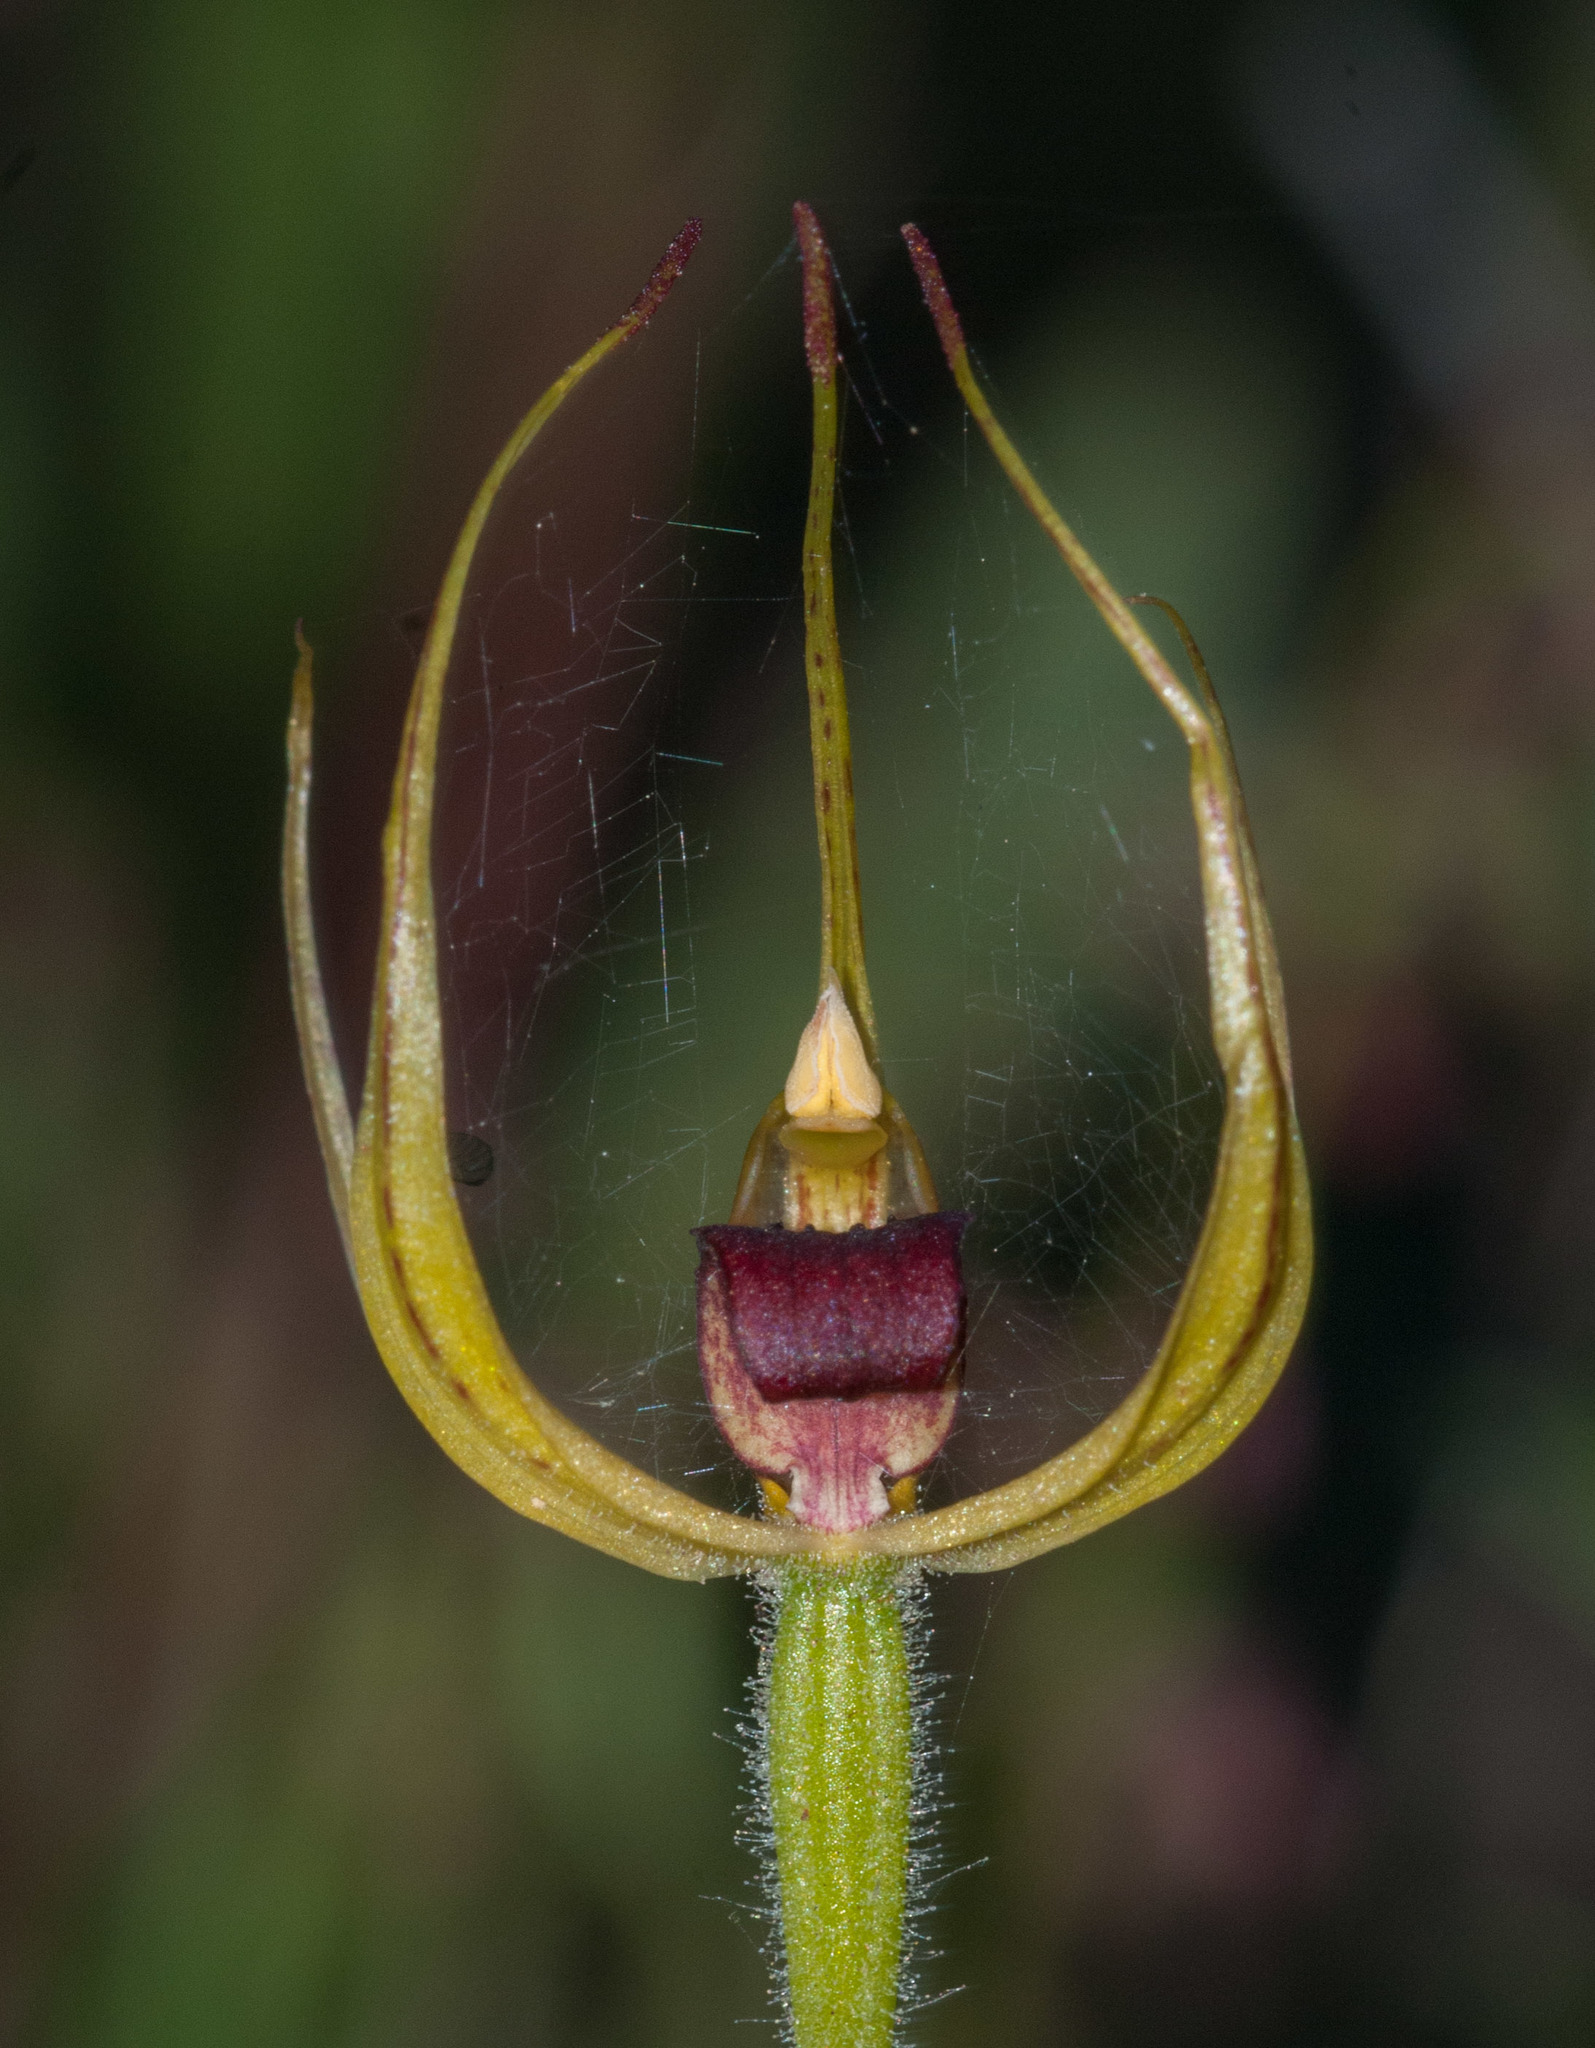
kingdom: Plantae
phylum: Tracheophyta
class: Liliopsida
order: Asparagales
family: Orchidaceae
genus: Caladenia
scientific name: Caladenia leptochila
